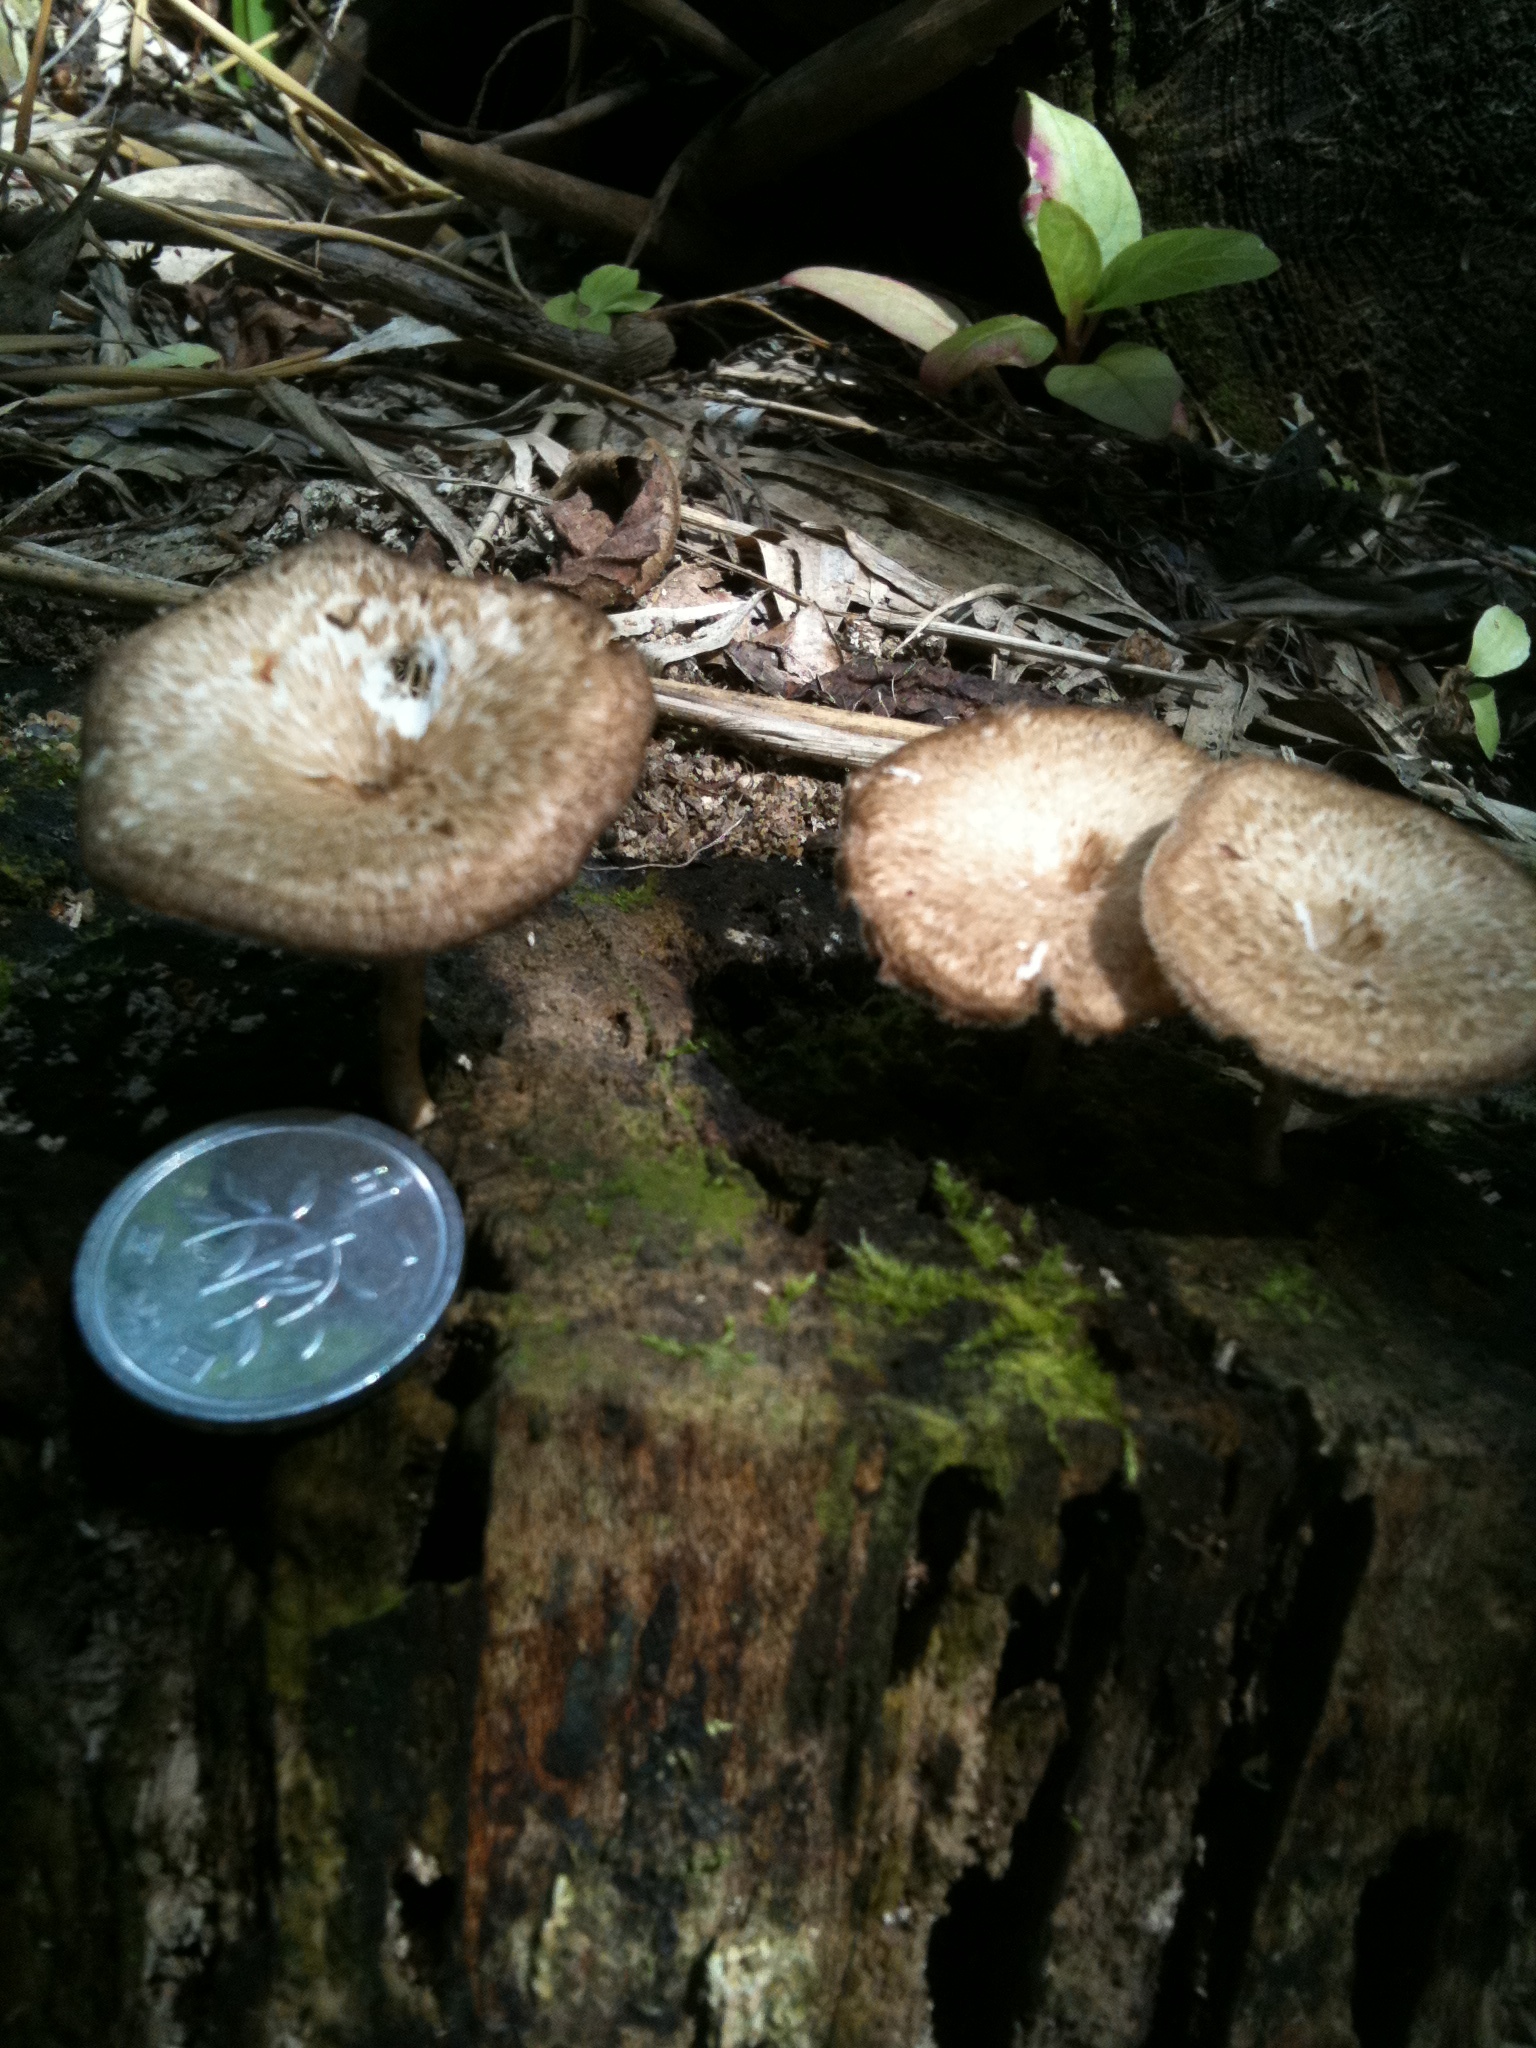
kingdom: Fungi
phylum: Basidiomycota
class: Agaricomycetes
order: Polyporales
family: Polyporaceae
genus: Lentinus
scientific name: Lentinus arcularius
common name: Spring polypore
